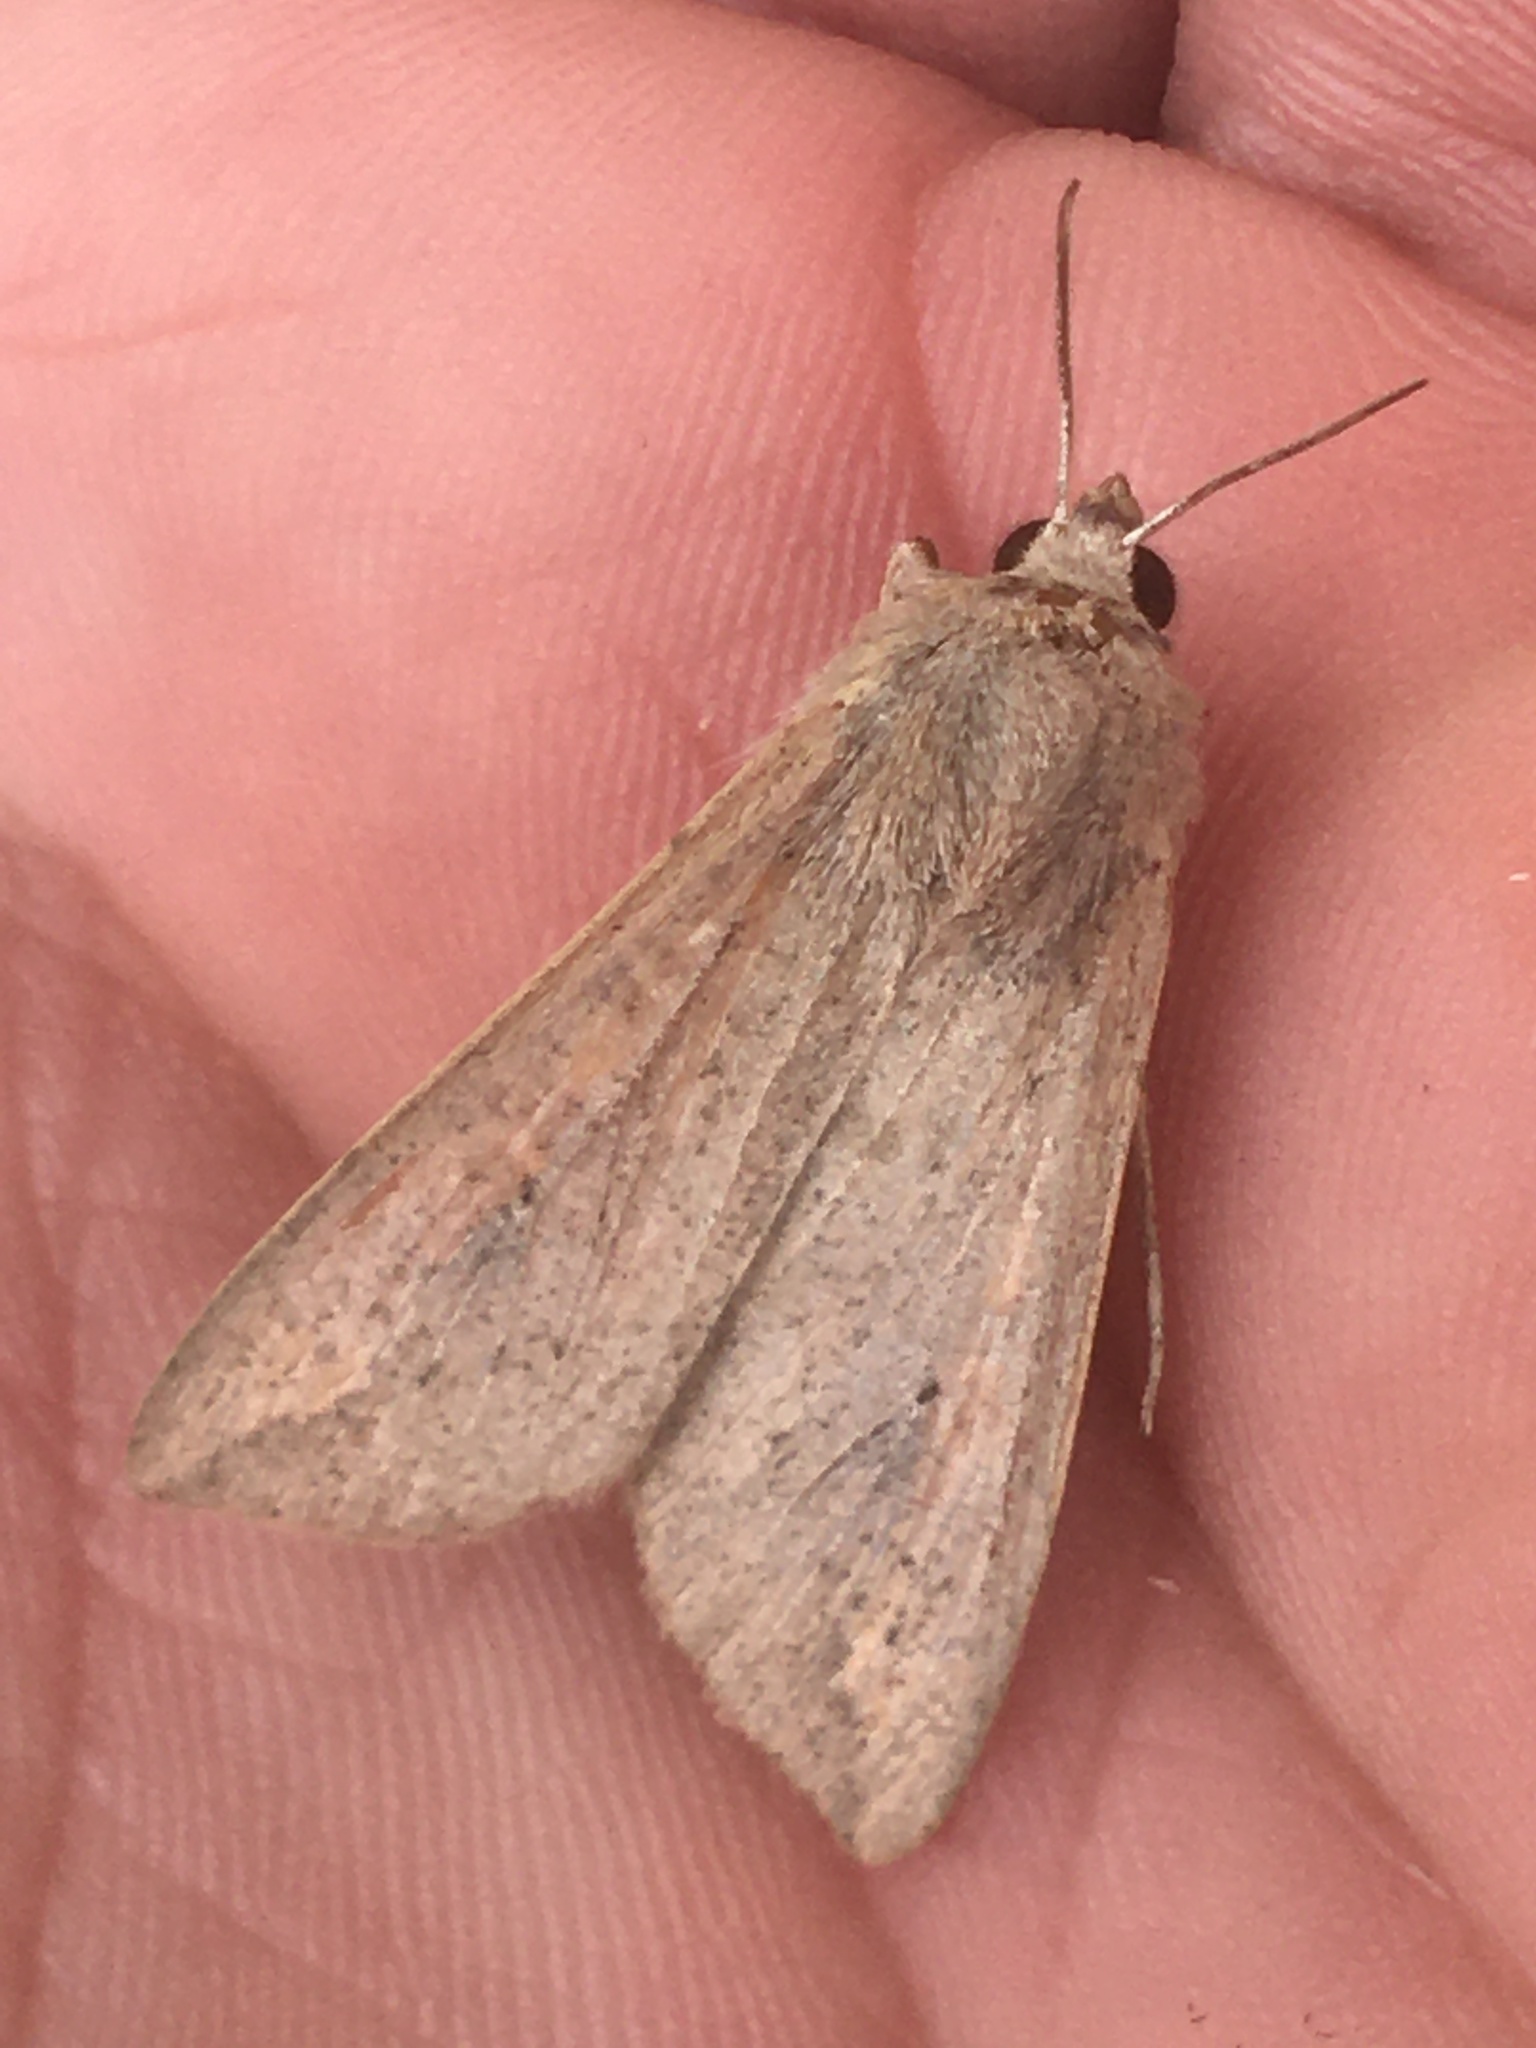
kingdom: Animalia
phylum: Arthropoda
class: Insecta
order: Lepidoptera
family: Noctuidae
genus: Mythimna
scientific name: Mythimna unipuncta
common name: White-speck
